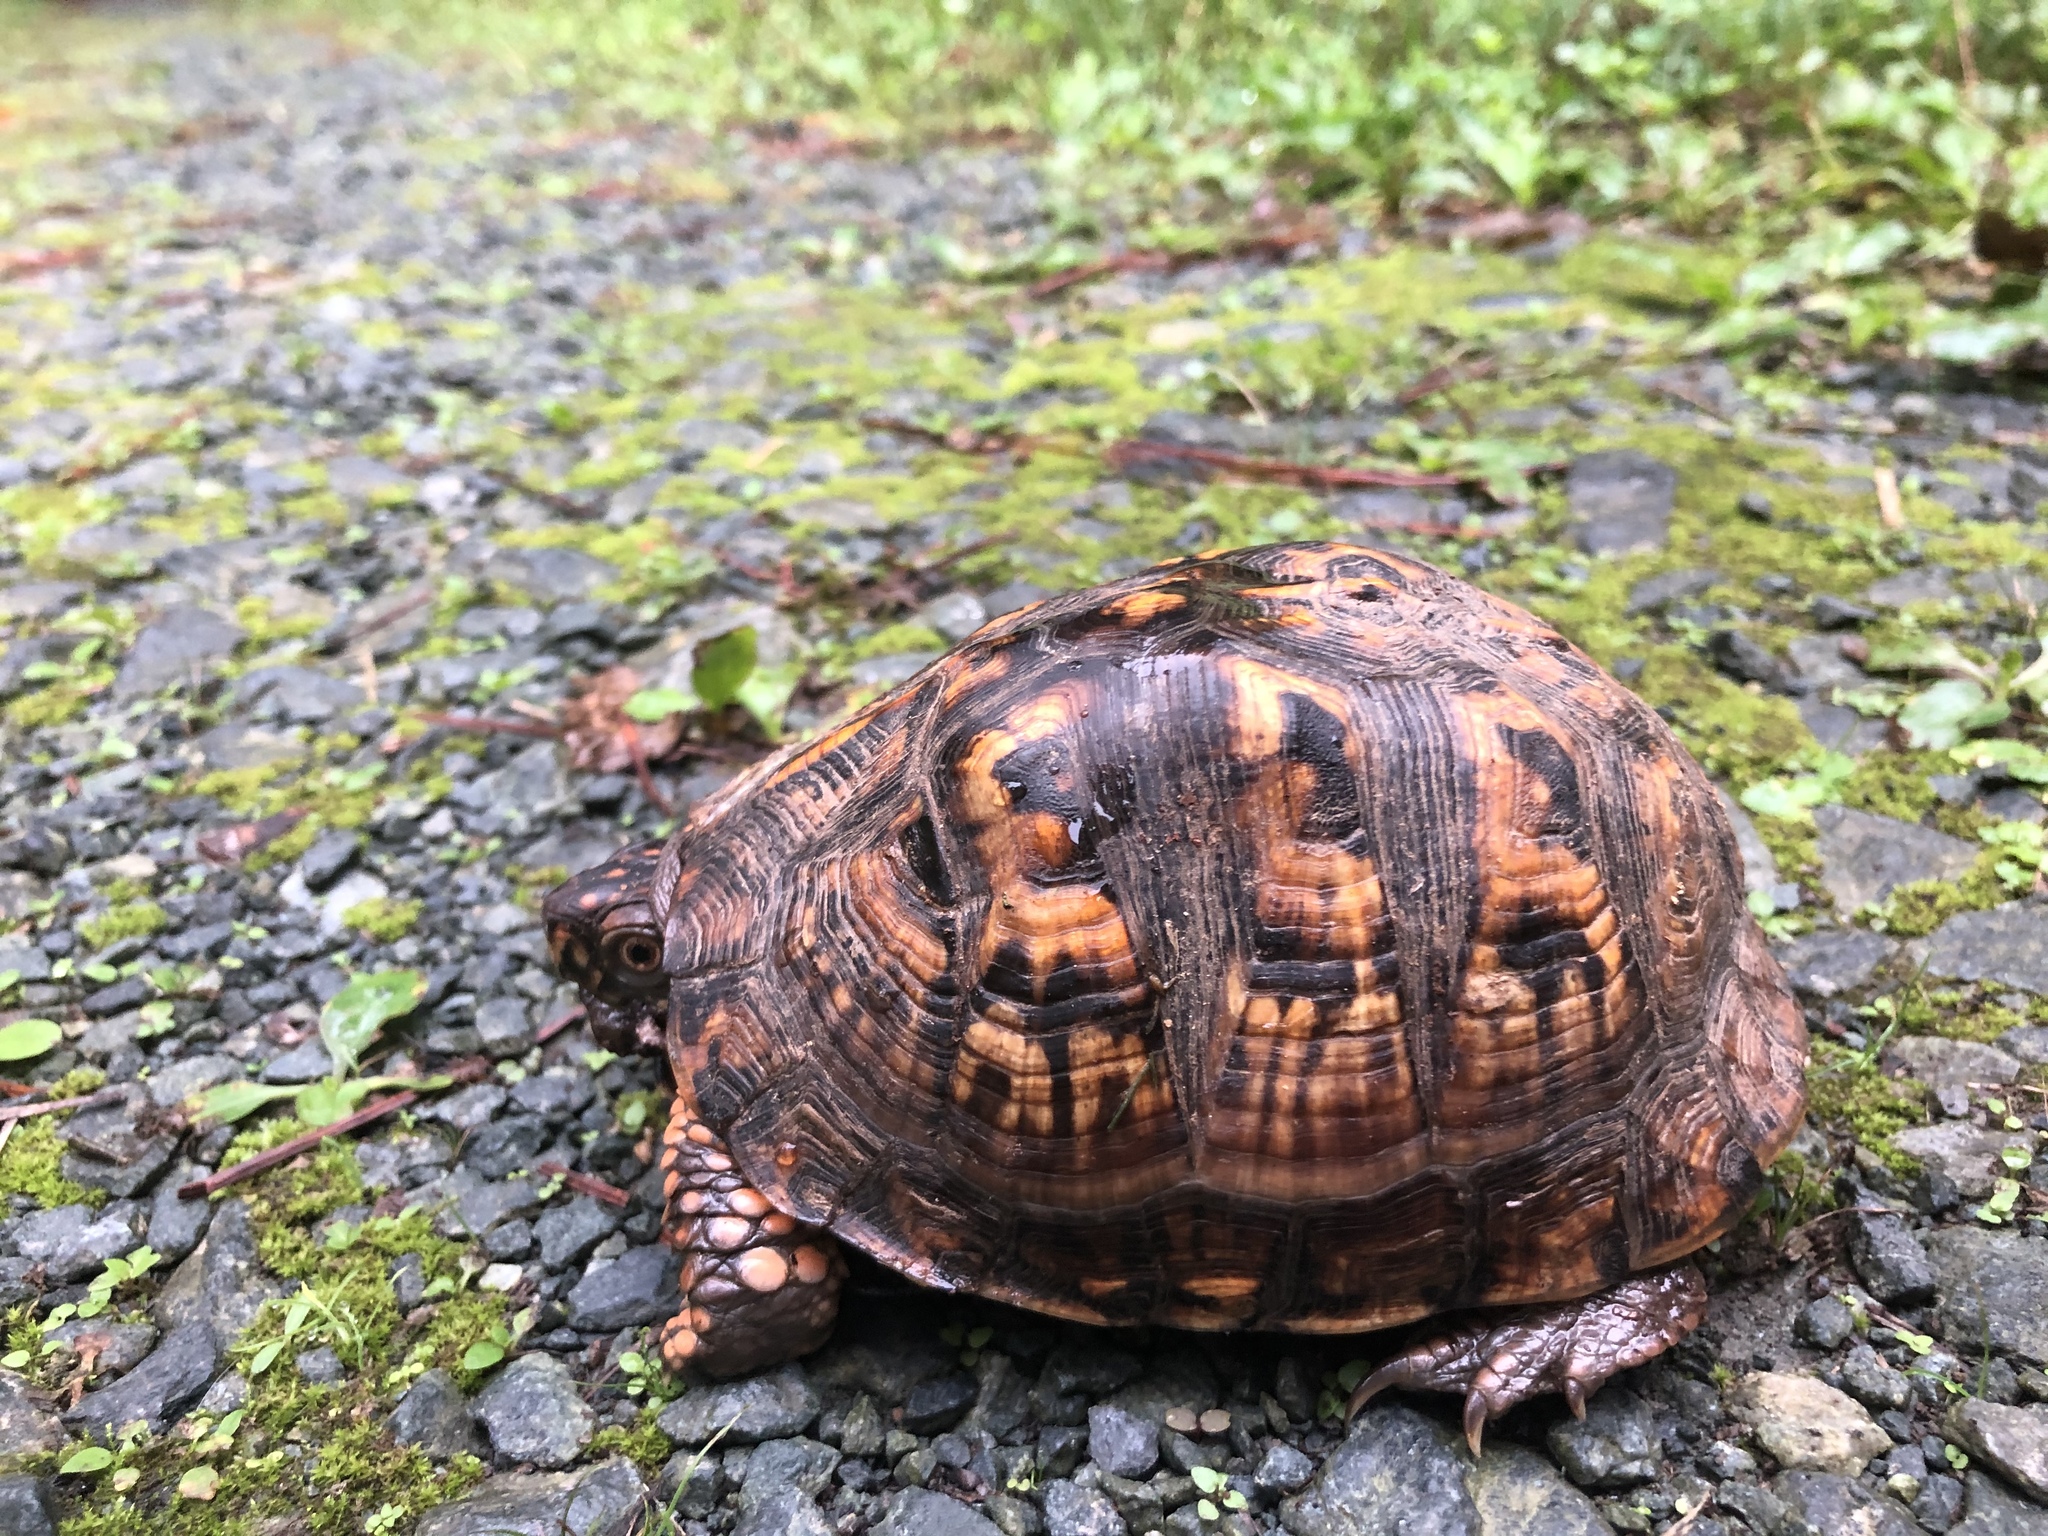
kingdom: Animalia
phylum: Chordata
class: Testudines
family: Emydidae
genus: Terrapene
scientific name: Terrapene carolina
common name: Common box turtle
